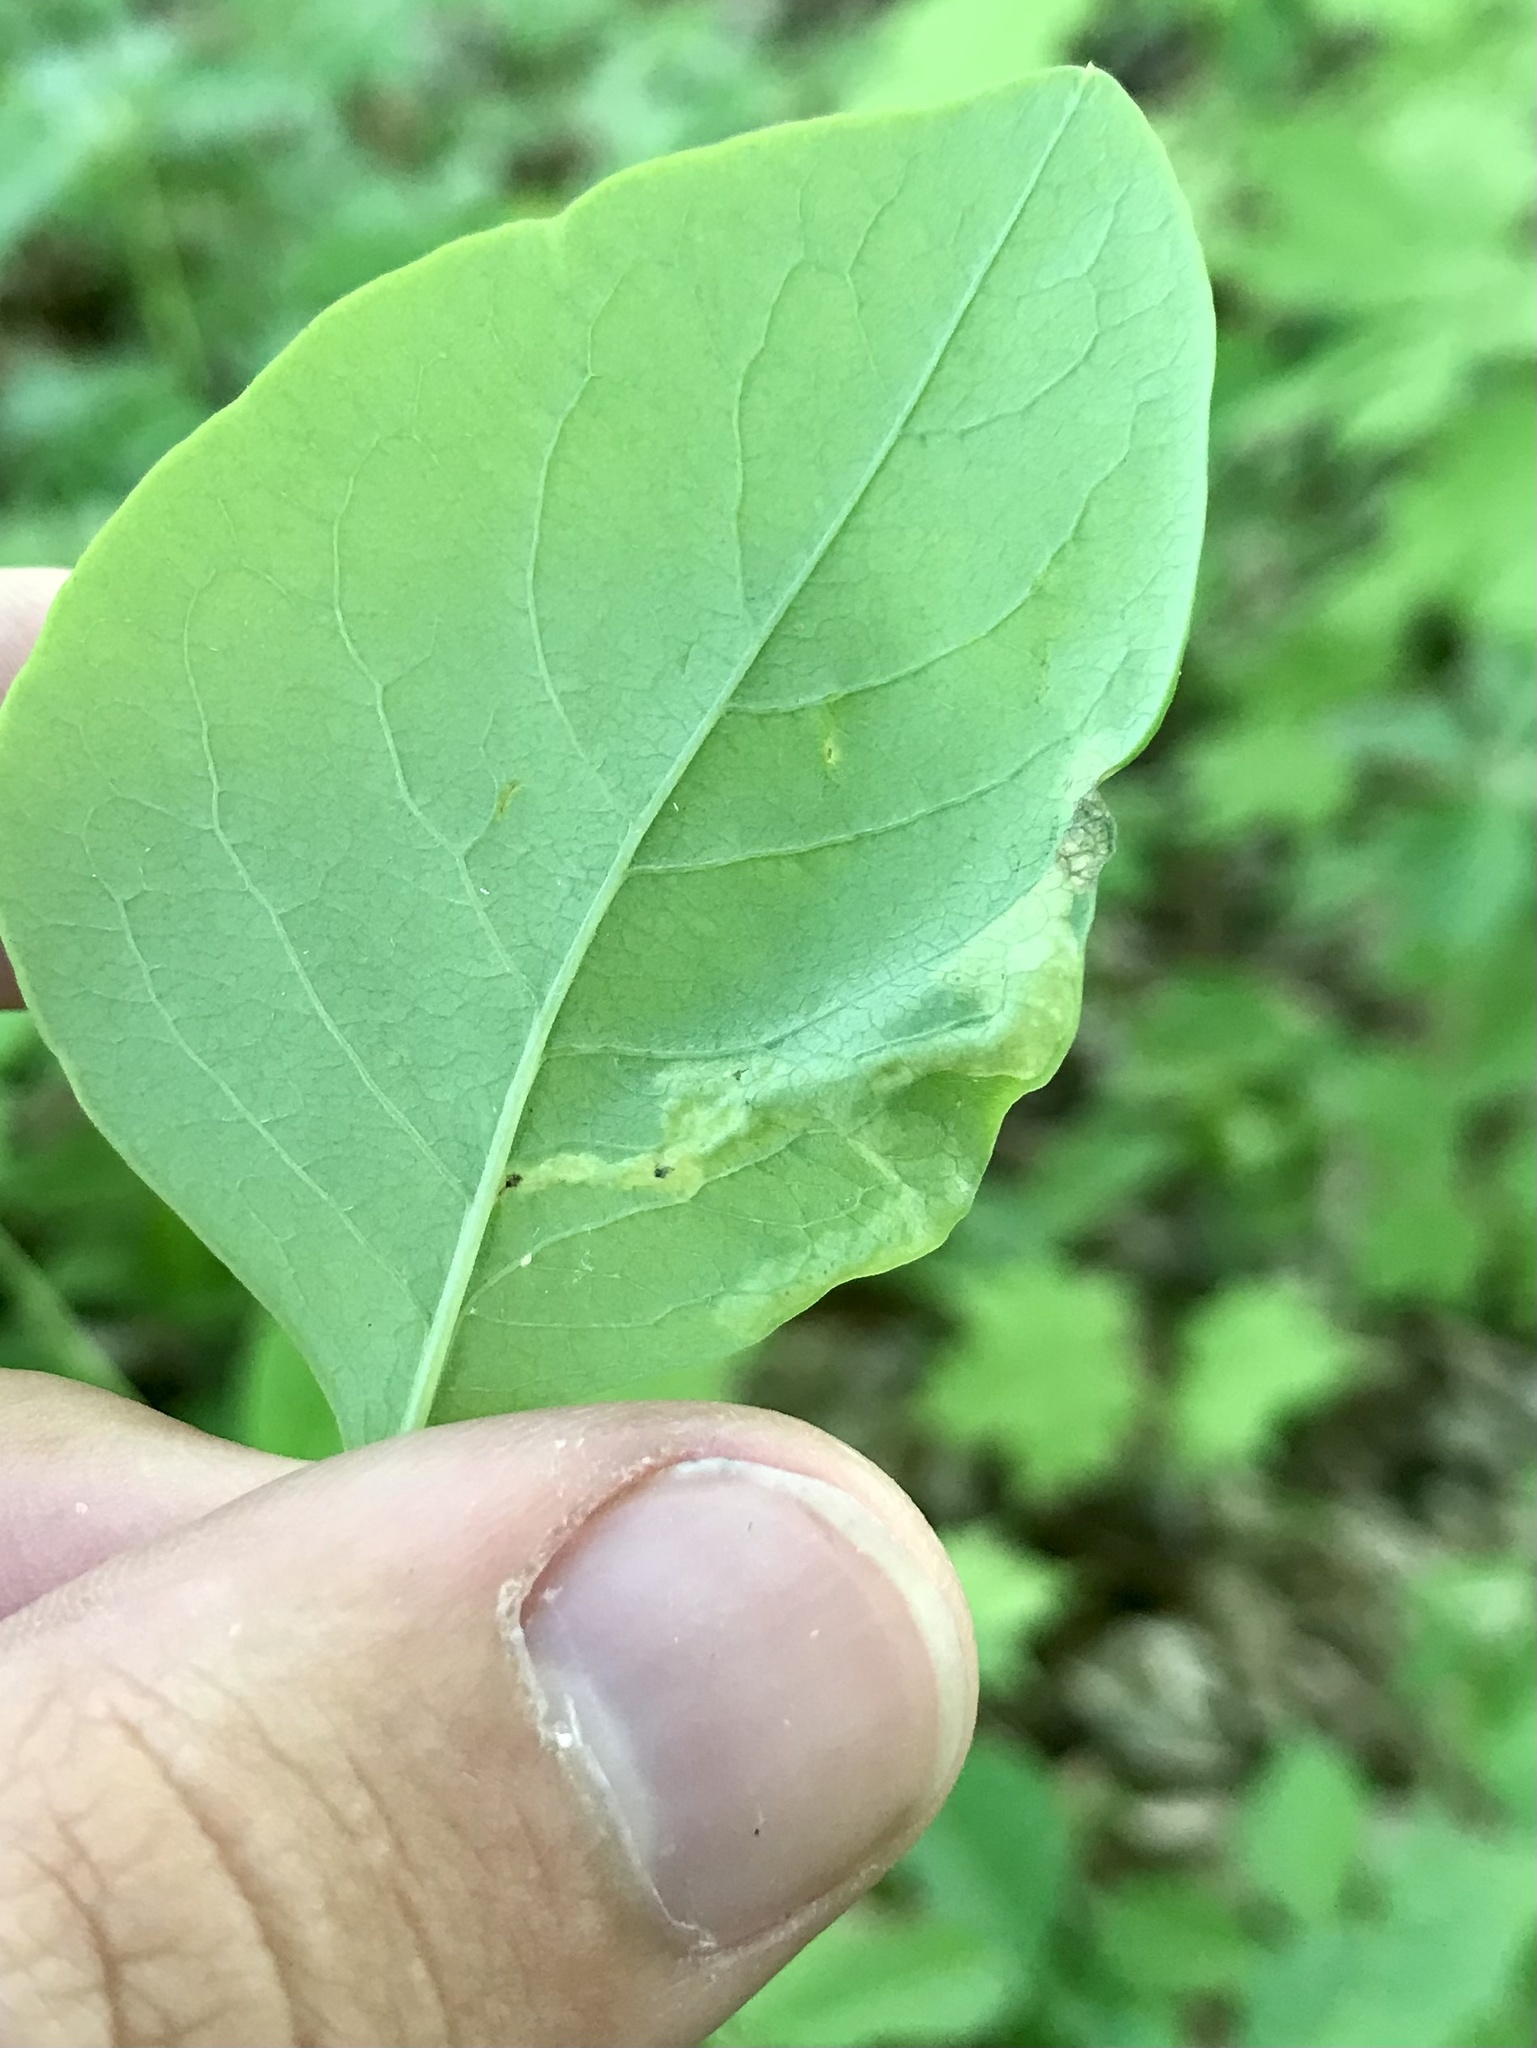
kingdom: Animalia
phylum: Arthropoda
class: Insecta
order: Diptera
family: Agromyzidae
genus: Aulagromyza
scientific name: Aulagromyza cornigera
